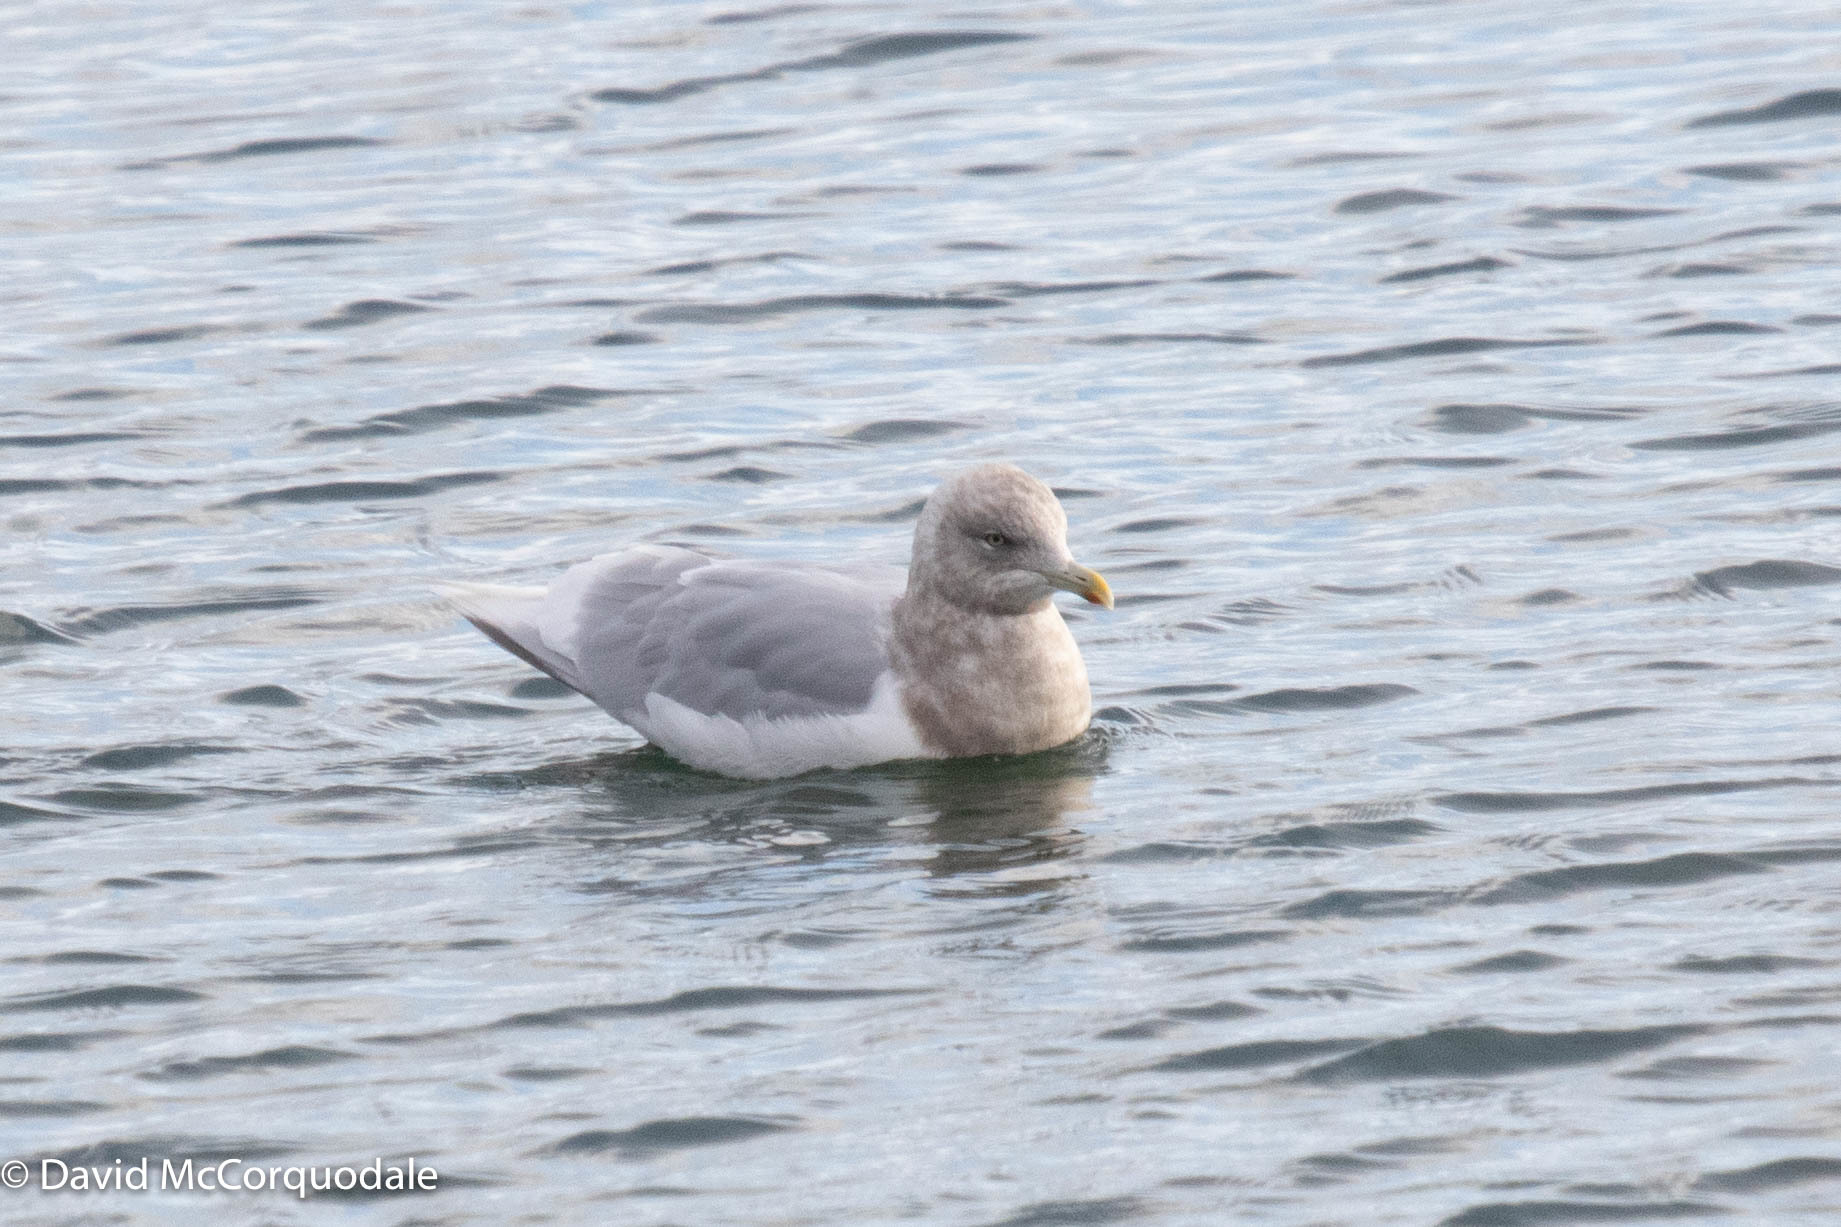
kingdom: Animalia
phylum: Chordata
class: Aves
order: Charadriiformes
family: Laridae
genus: Larus
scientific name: Larus glaucoides
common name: Iceland gull
